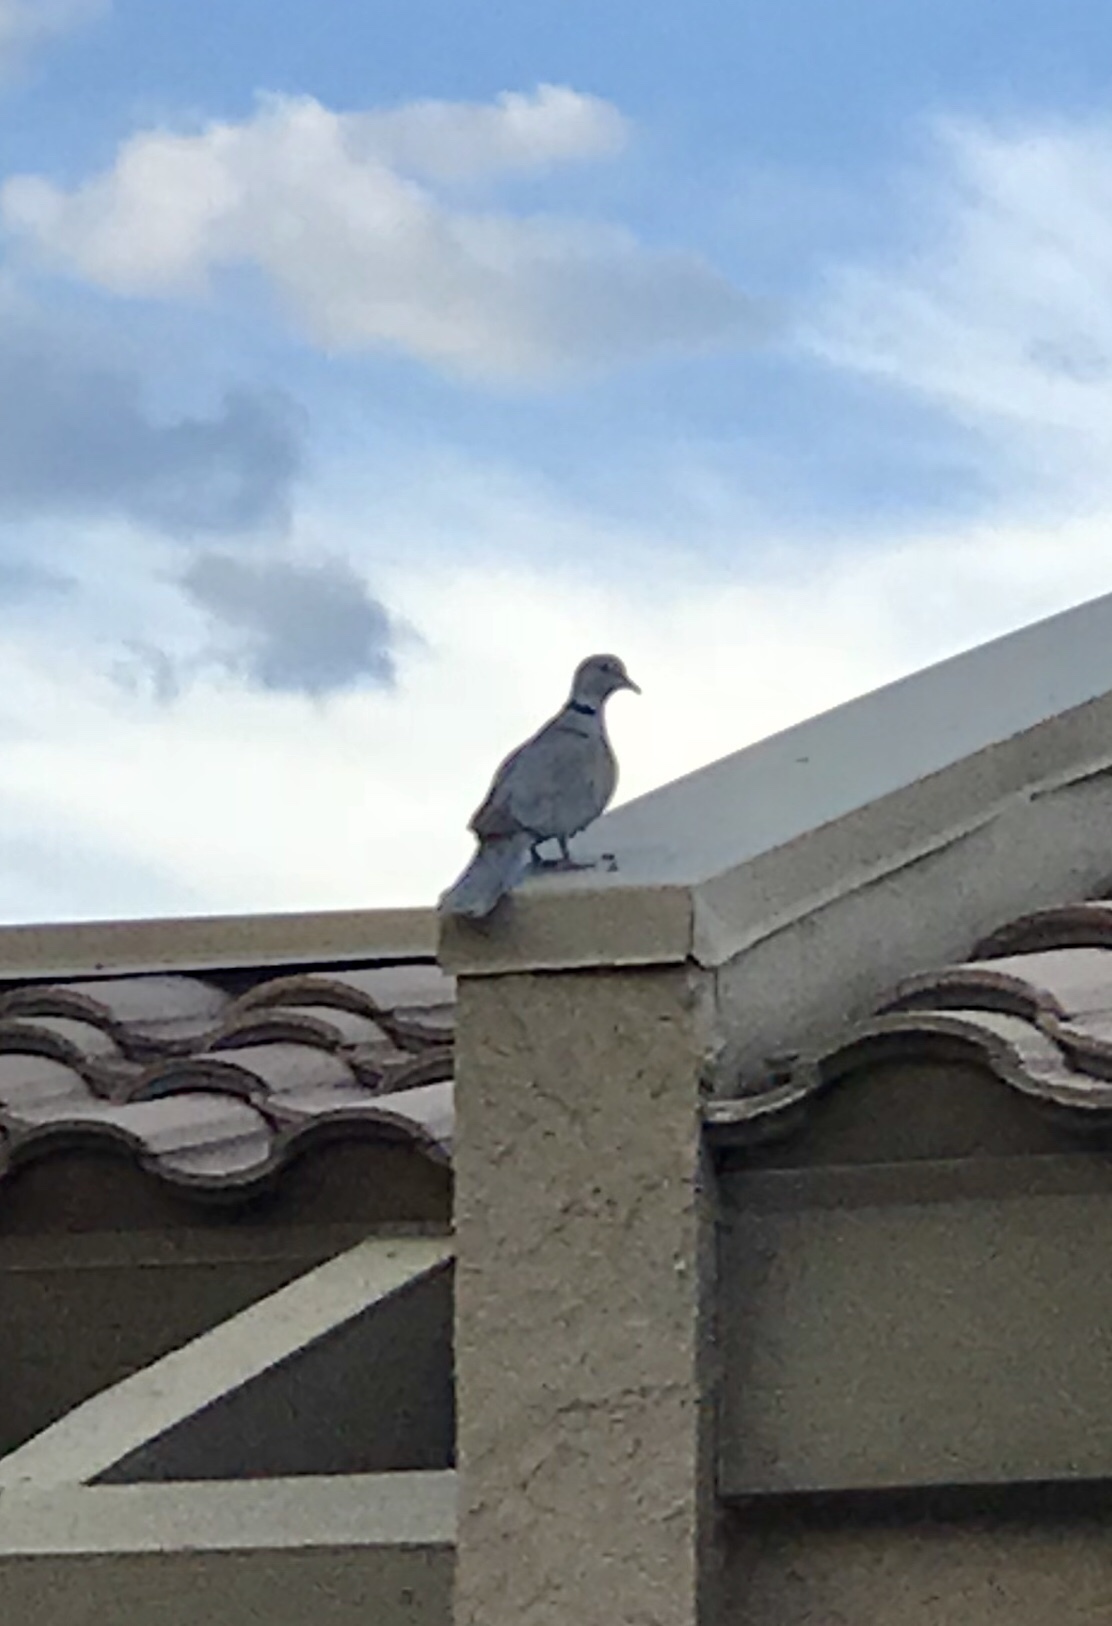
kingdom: Animalia
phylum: Chordata
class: Aves
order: Columbiformes
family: Columbidae
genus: Streptopelia
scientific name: Streptopelia decaocto
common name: Eurasian collared dove
